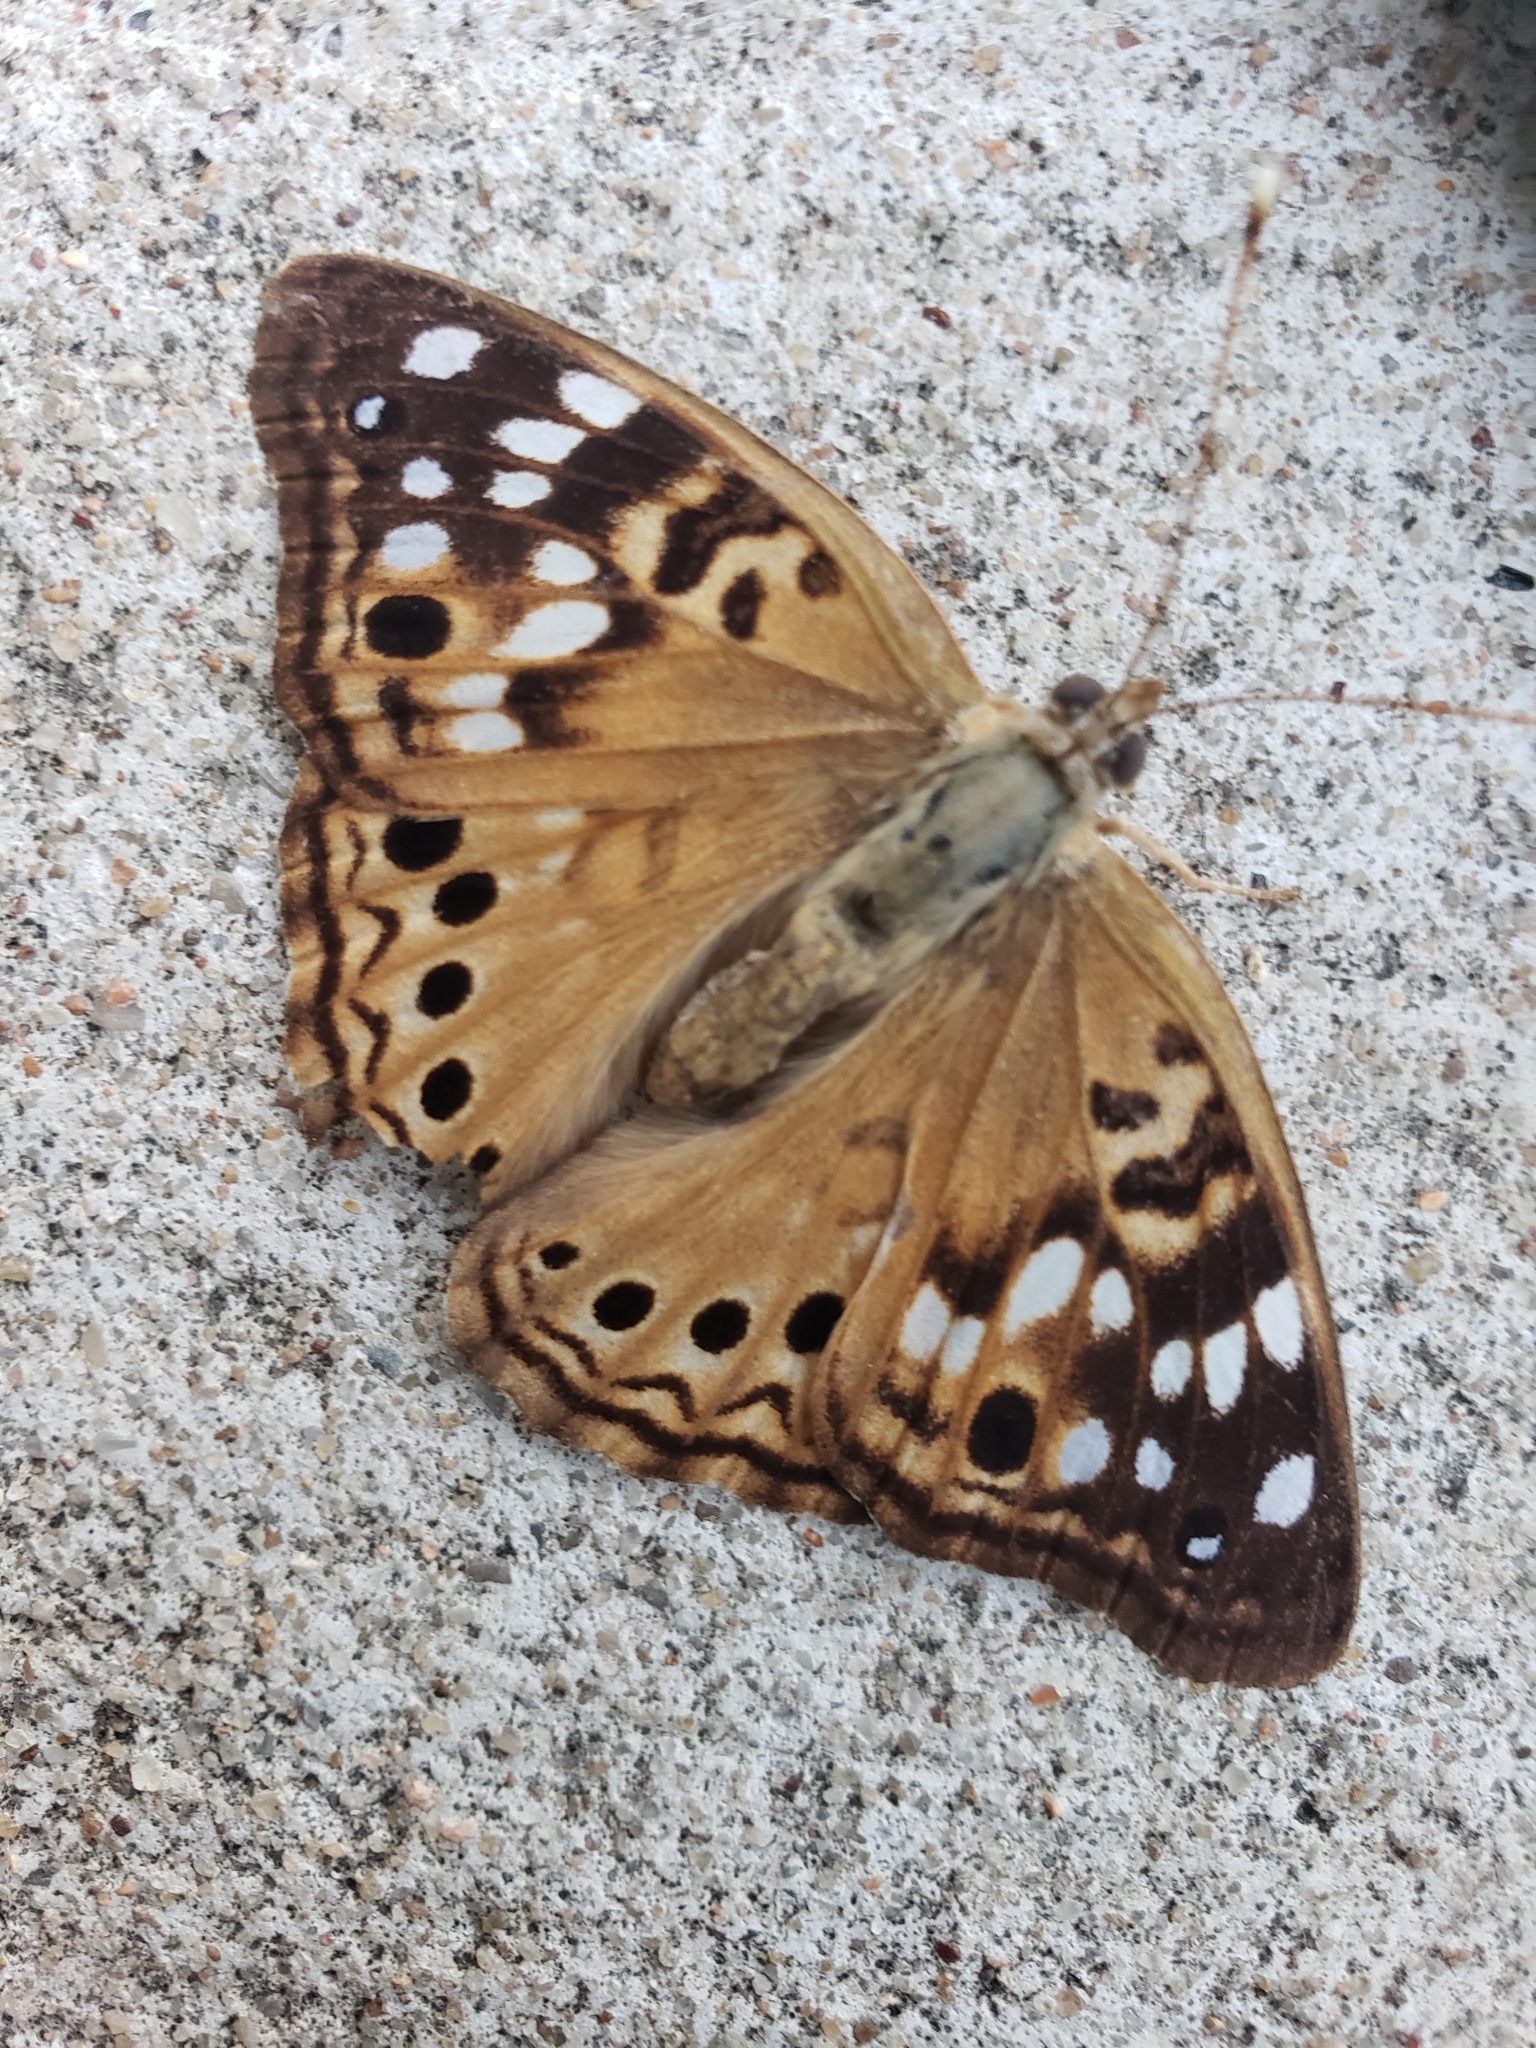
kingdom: Animalia
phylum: Arthropoda
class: Insecta
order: Lepidoptera
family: Nymphalidae
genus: Asterocampa
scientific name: Asterocampa celtis
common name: Hackberry emperor
